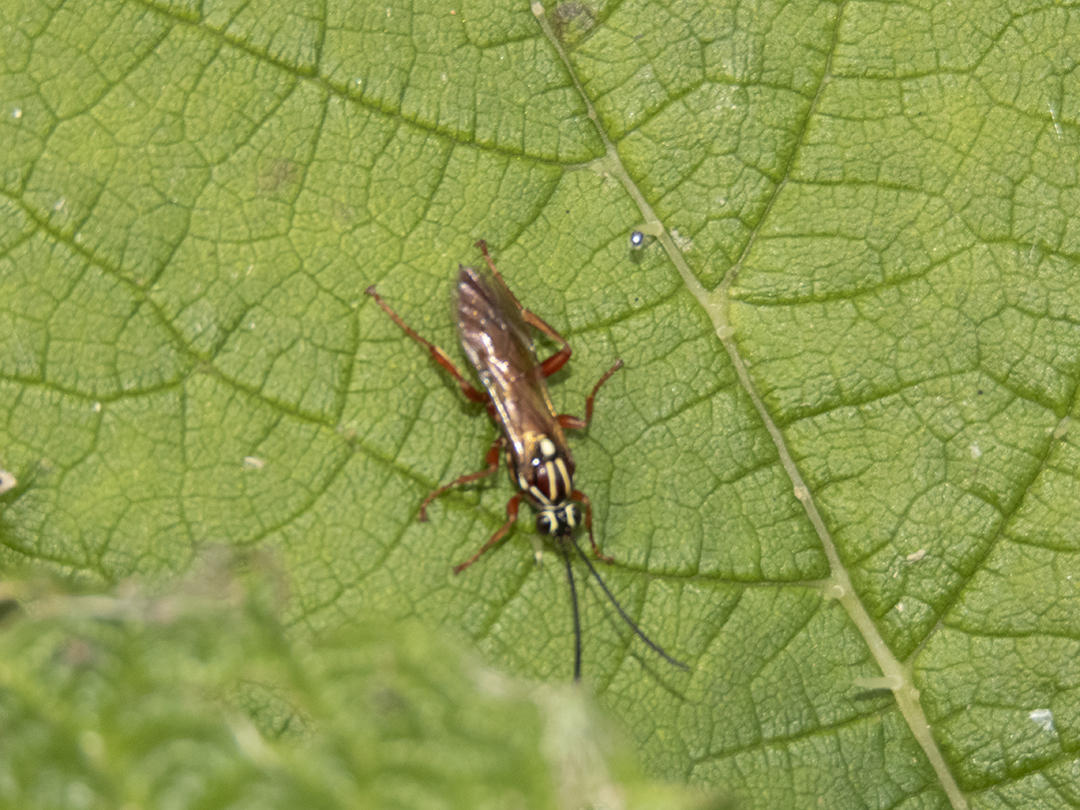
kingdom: Animalia
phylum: Arthropoda
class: Insecta
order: Hymenoptera
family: Ichneumonidae
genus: Aucklandella
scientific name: Aucklandella conspirata
